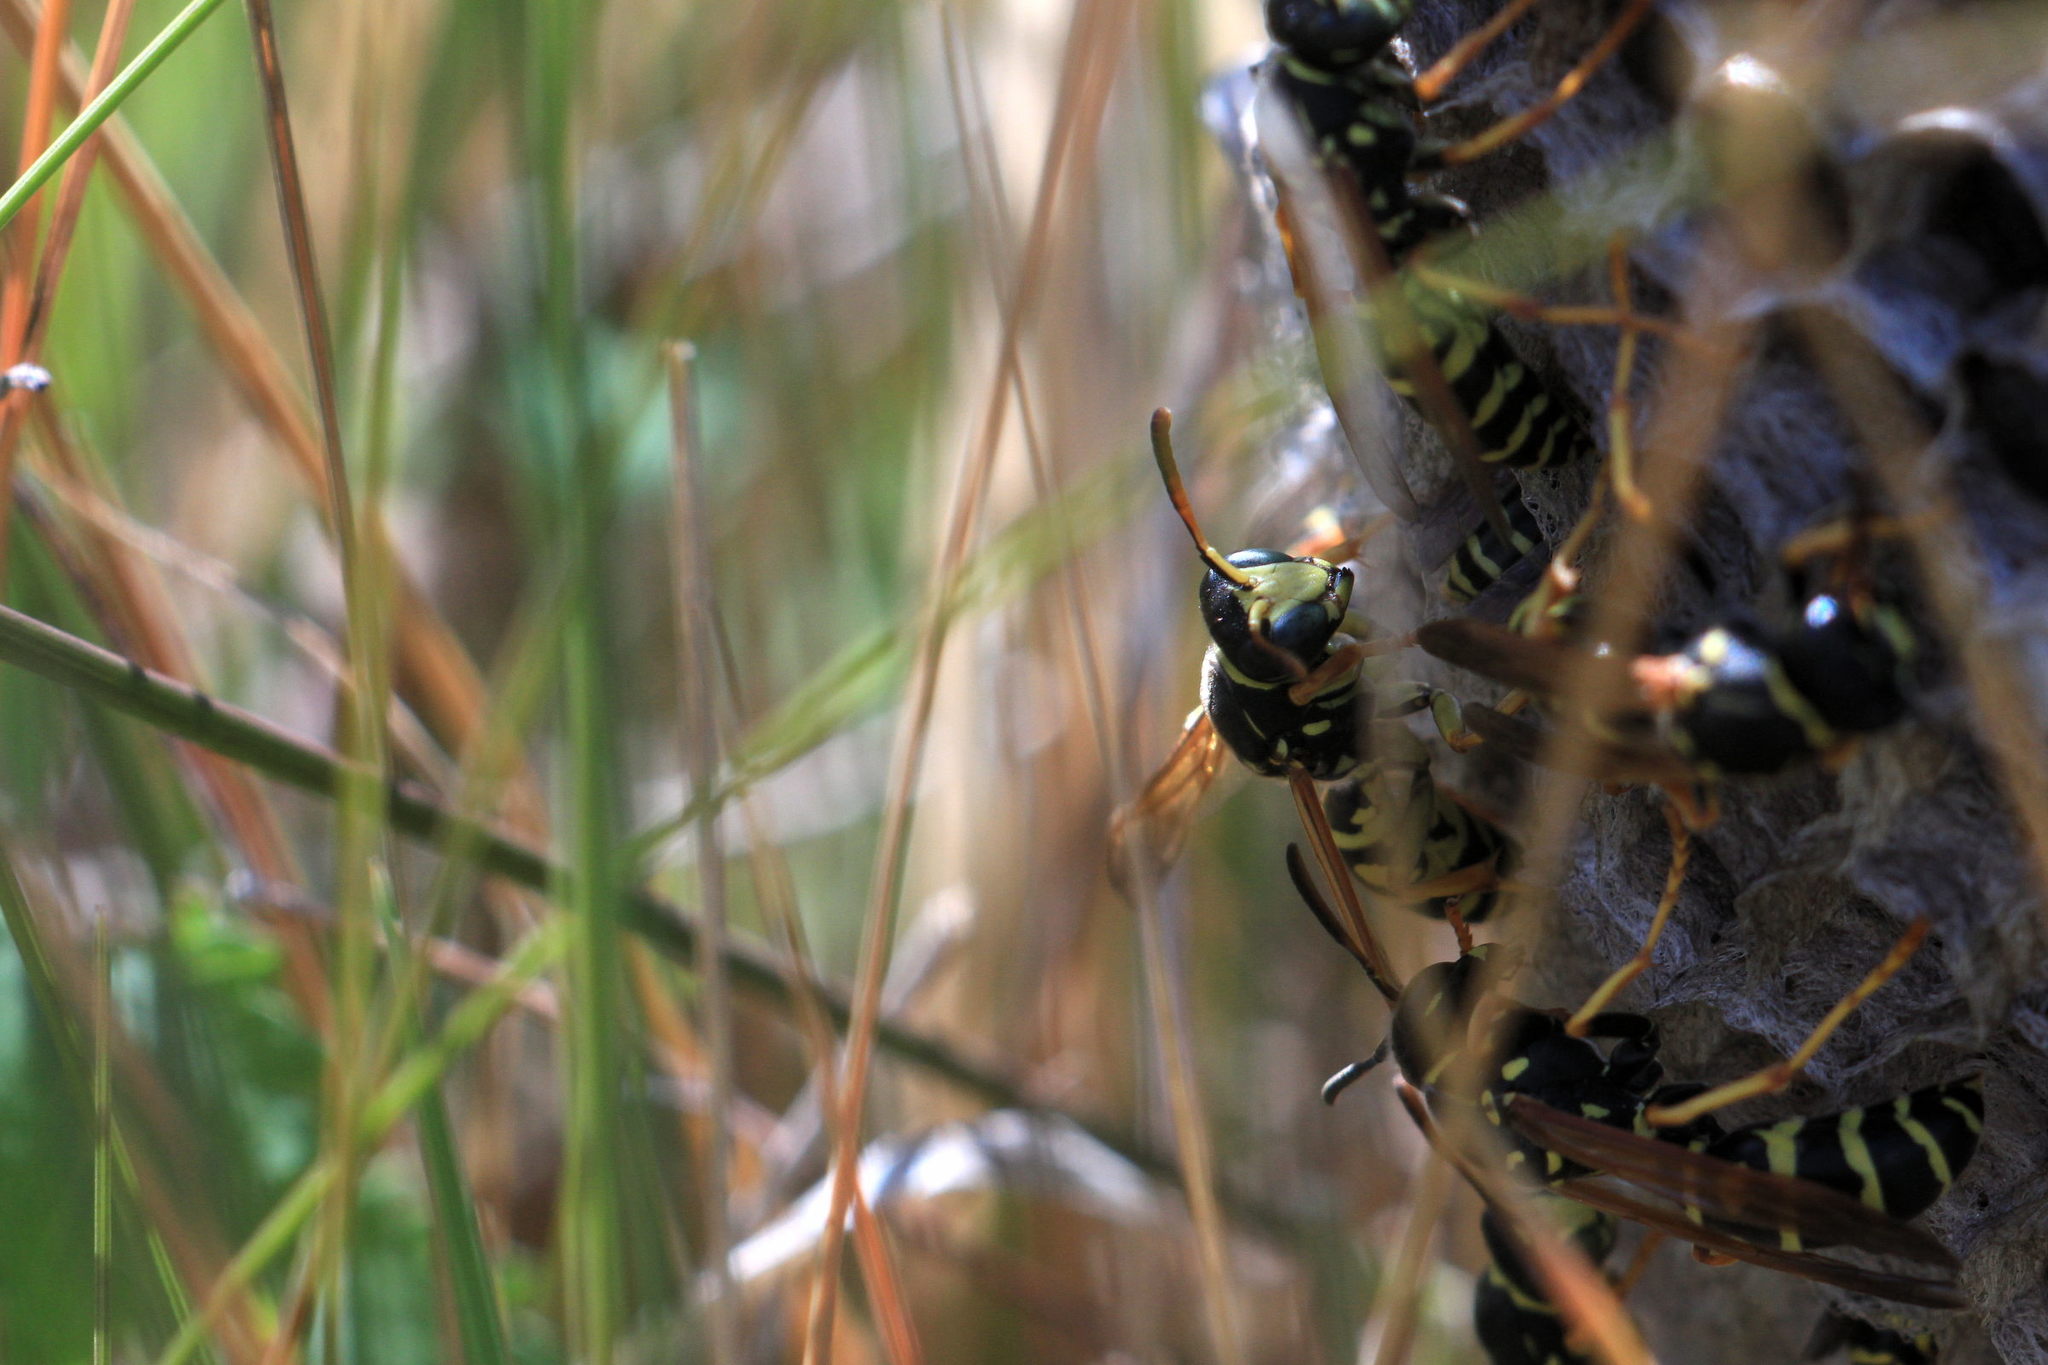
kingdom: Animalia
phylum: Arthropoda
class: Insecta
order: Hymenoptera
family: Eumenidae
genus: Polistes
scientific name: Polistes biglumis
